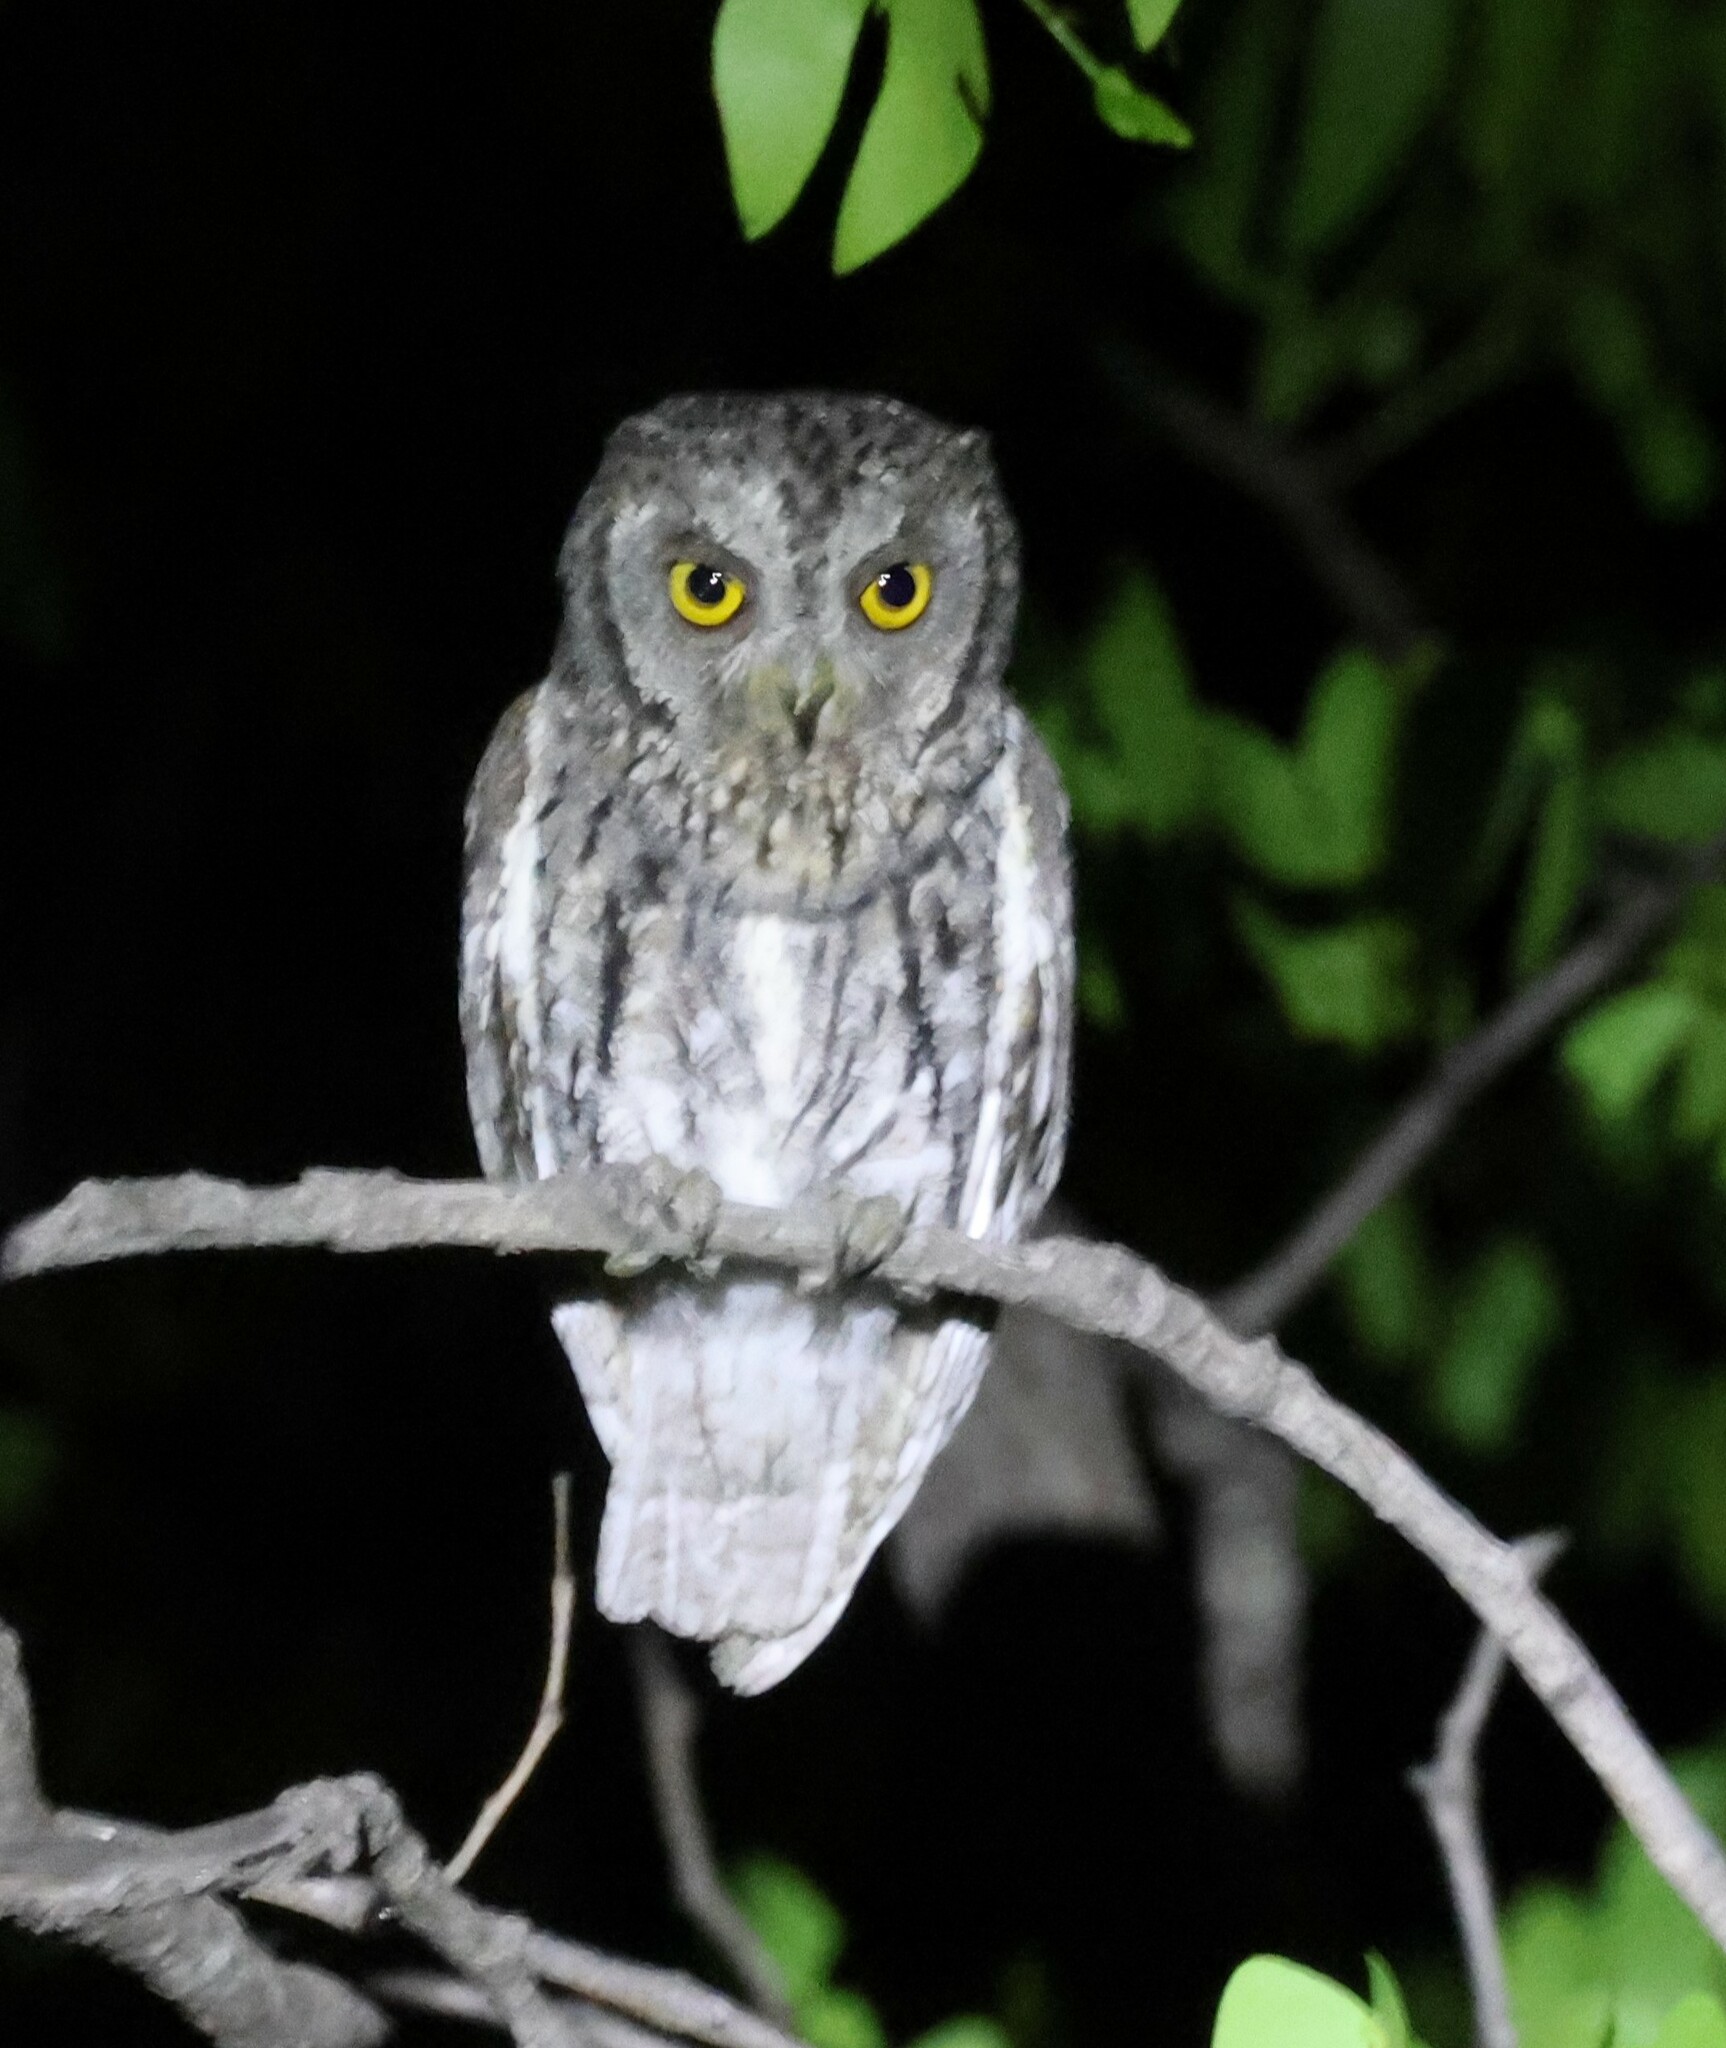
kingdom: Animalia
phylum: Chordata
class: Aves
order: Strigiformes
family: Strigidae
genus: Otus
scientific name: Otus senegalensis
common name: African scops owl
